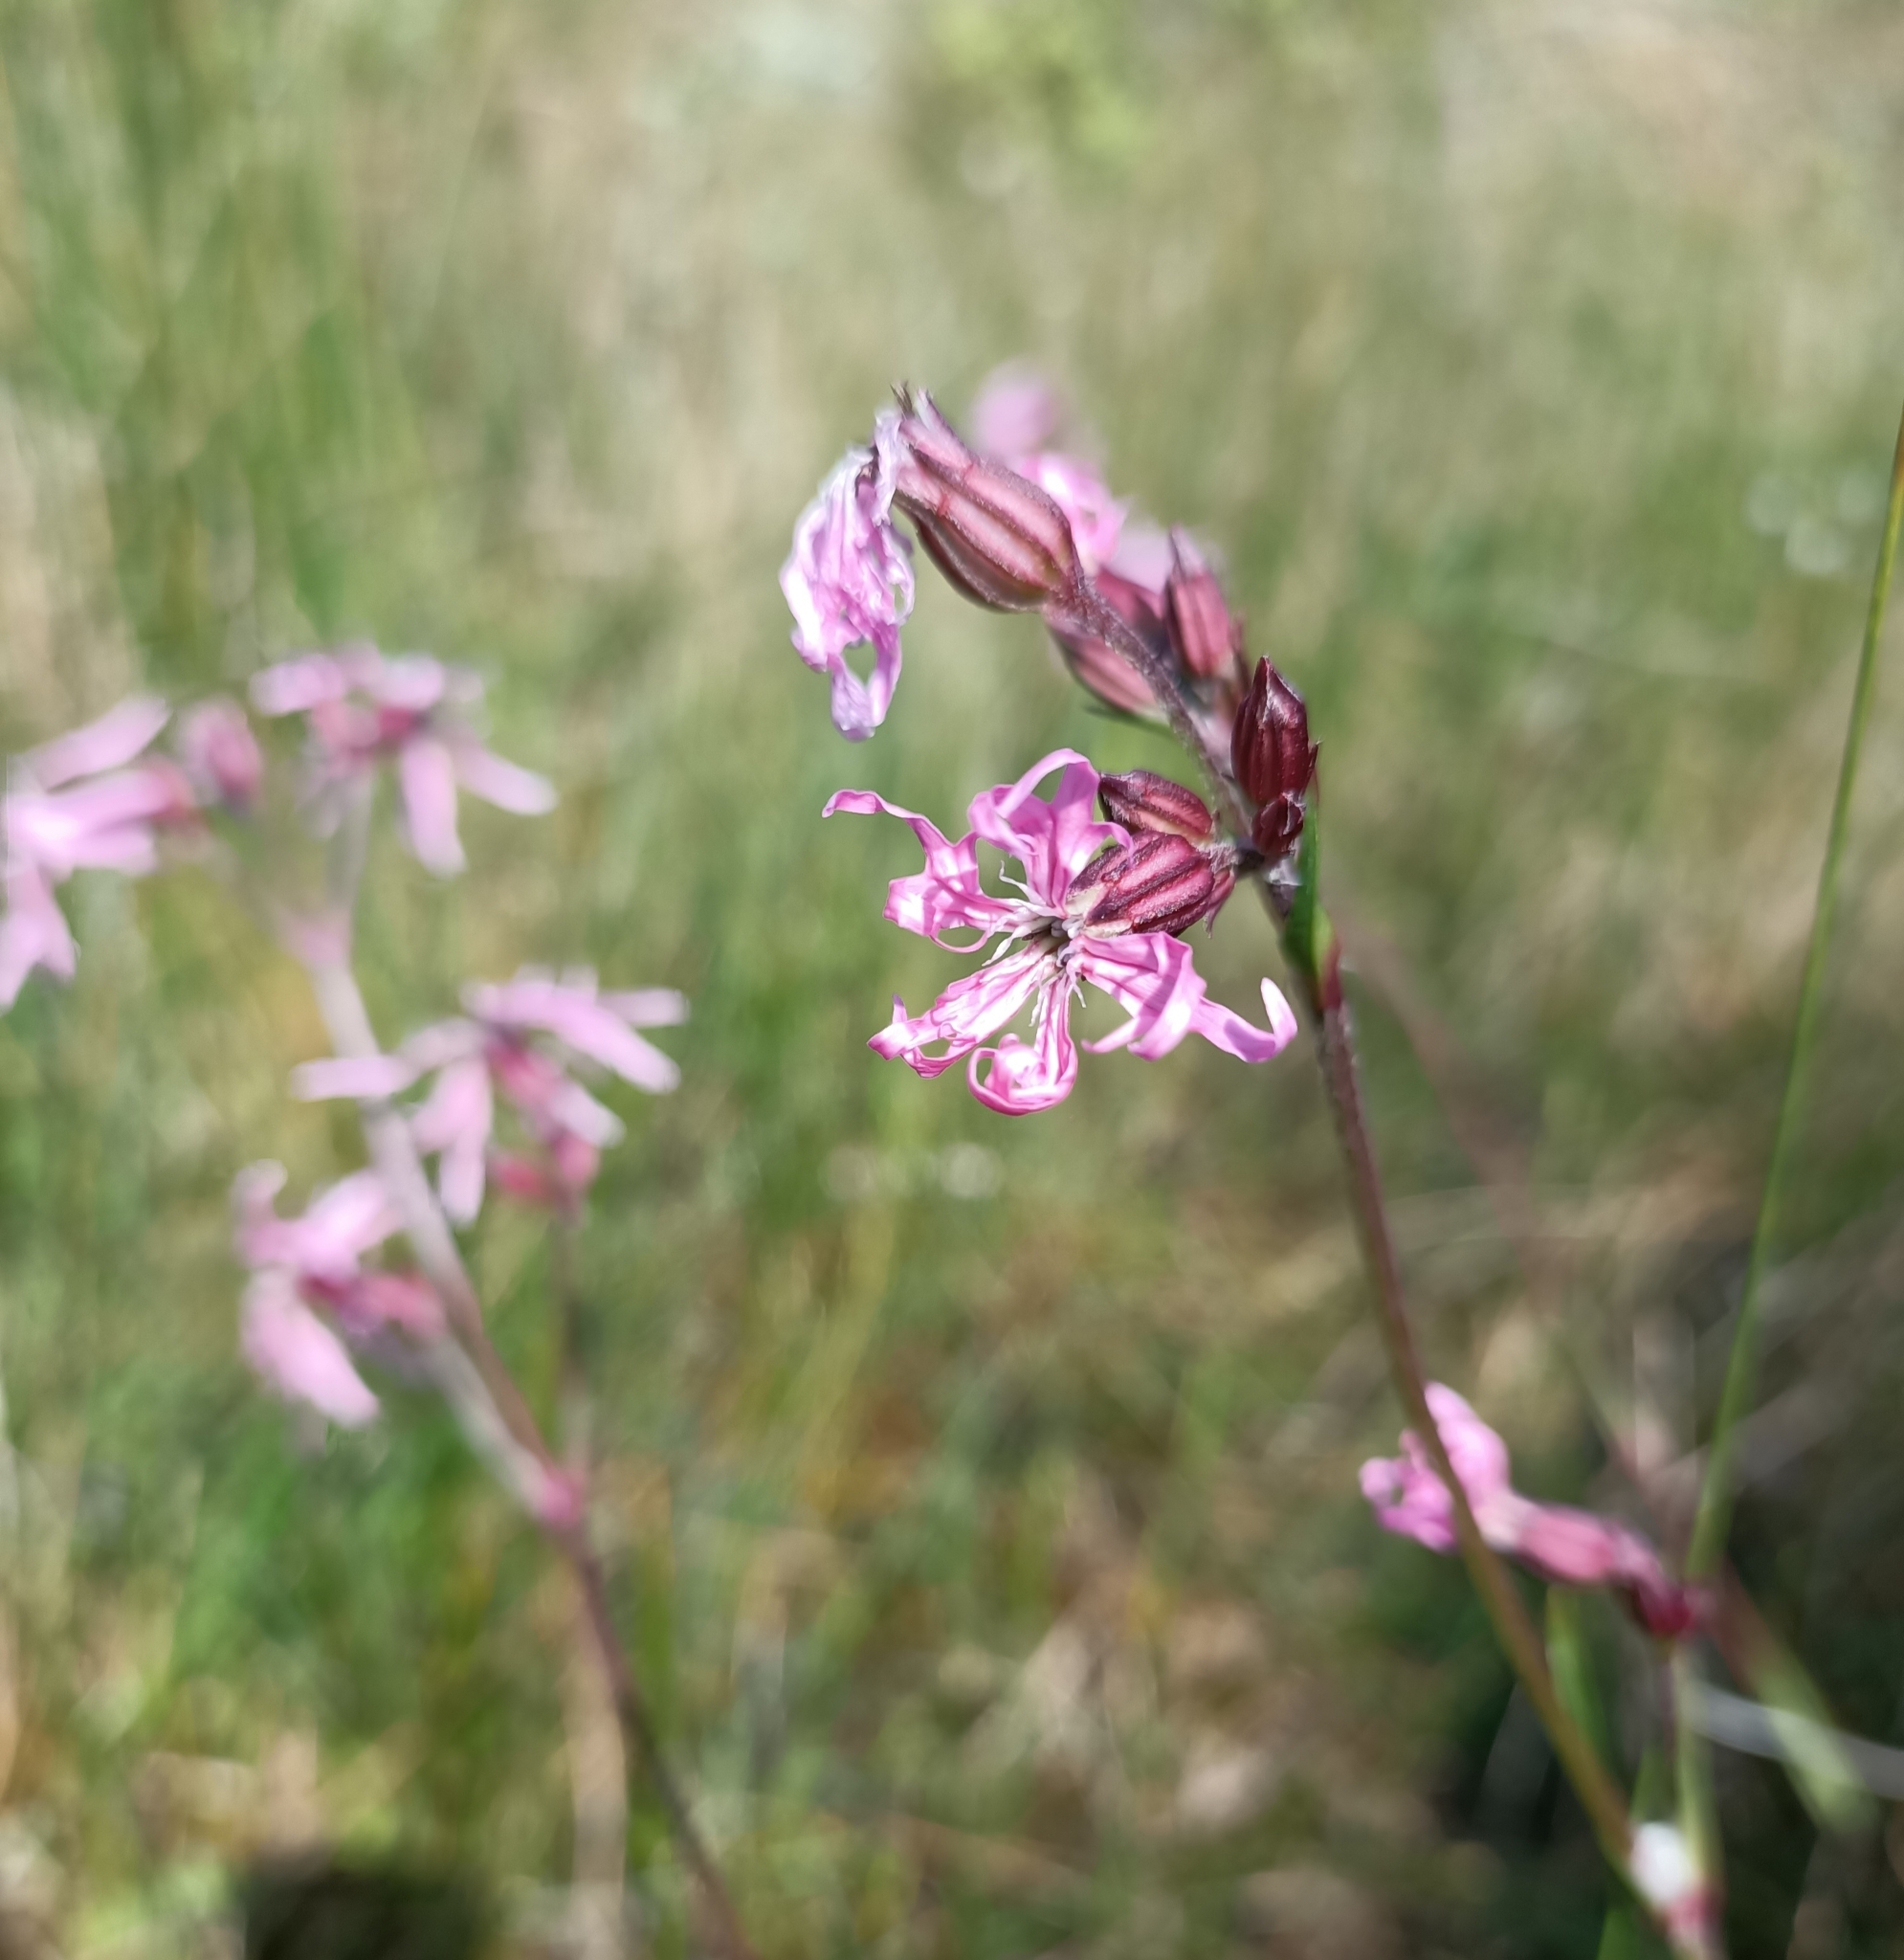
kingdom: Plantae
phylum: Tracheophyta
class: Magnoliopsida
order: Caryophyllales
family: Caryophyllaceae
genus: Silene
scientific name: Silene flos-cuculi
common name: Ragged-robin
